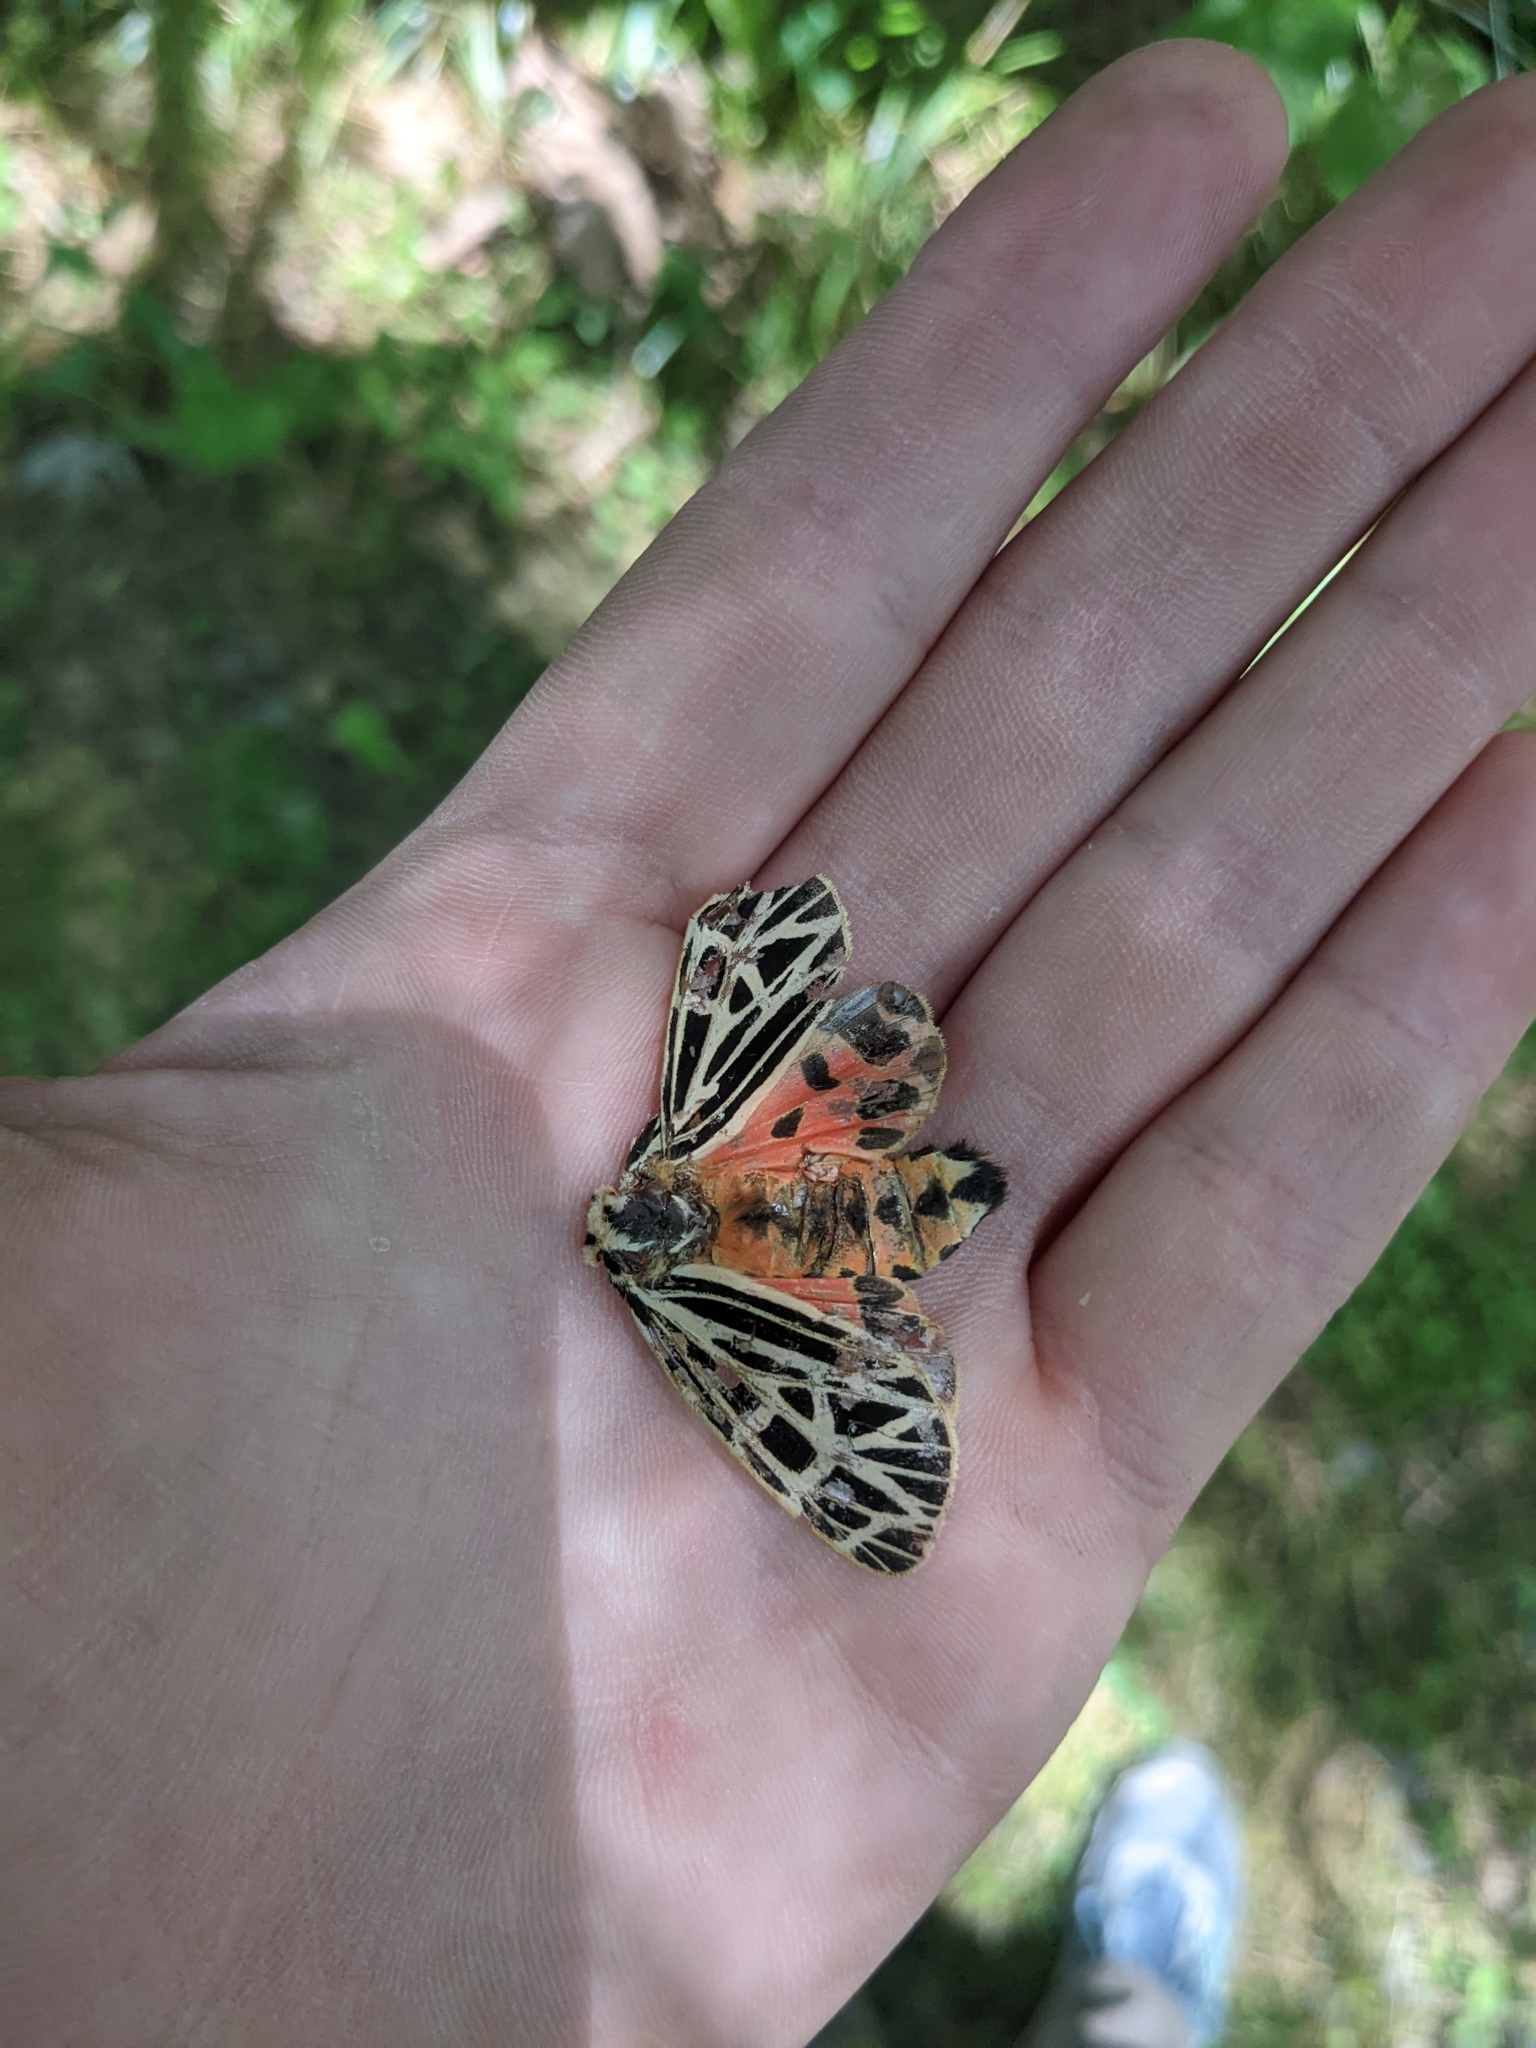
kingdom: Animalia
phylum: Arthropoda
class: Insecta
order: Lepidoptera
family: Erebidae
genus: Grammia
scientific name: Grammia virgo
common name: Virgin tiger moth
